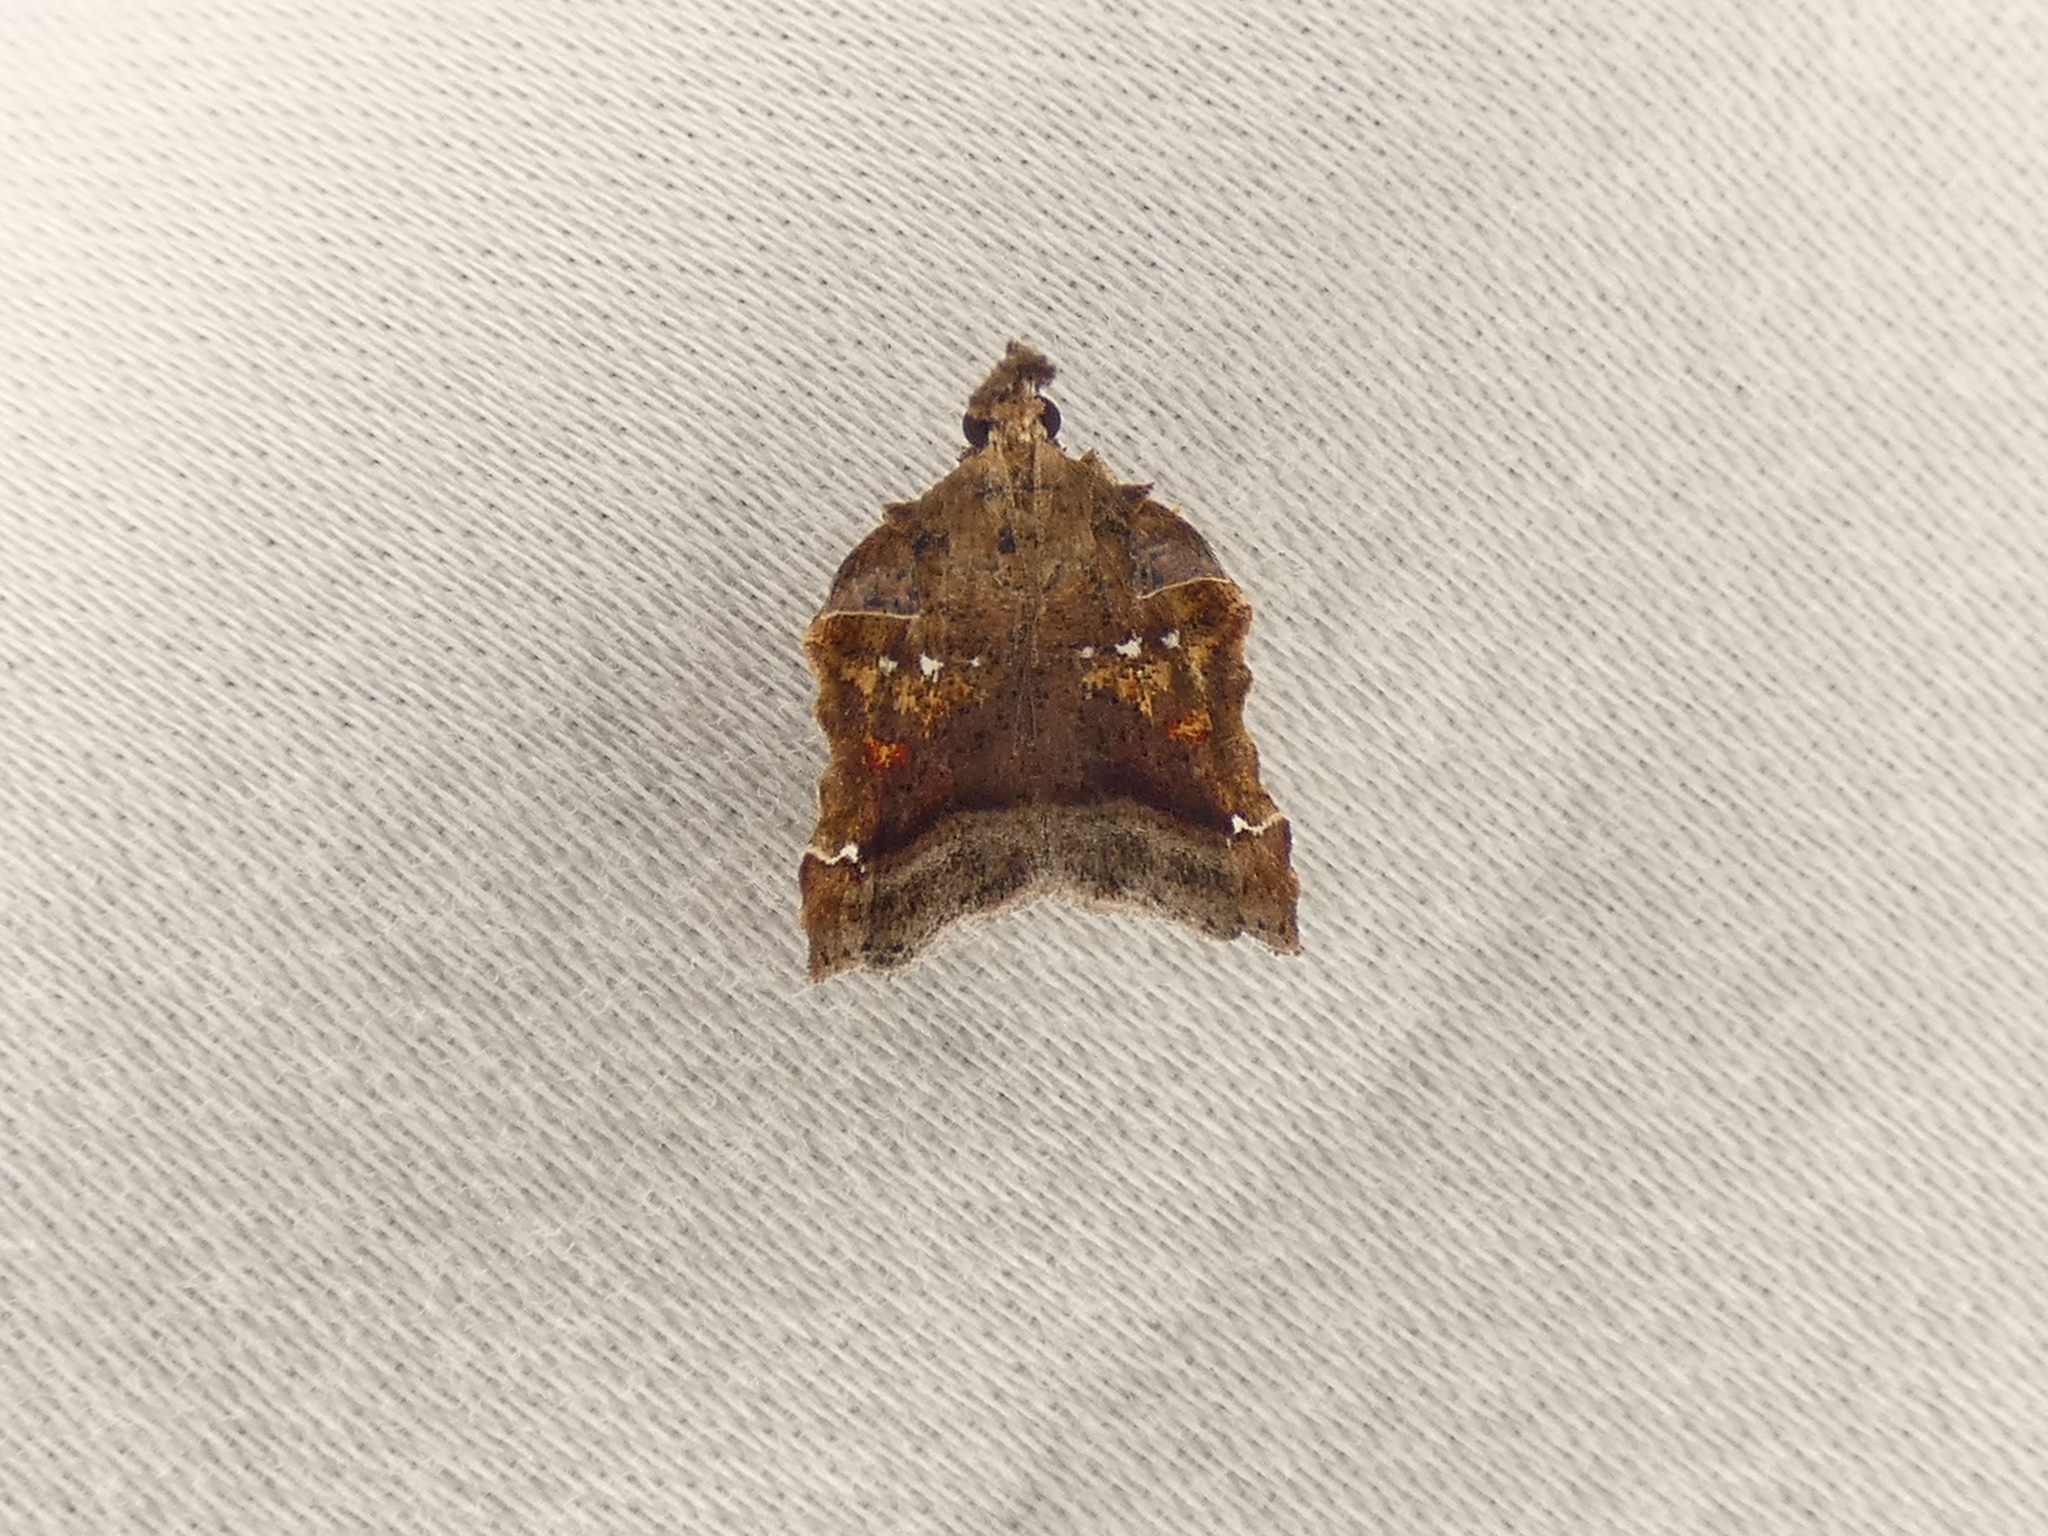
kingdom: Animalia
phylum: Arthropoda
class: Insecta
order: Lepidoptera
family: Pyralidae
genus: Clydonopteron
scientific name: Clydonopteron sacculana
